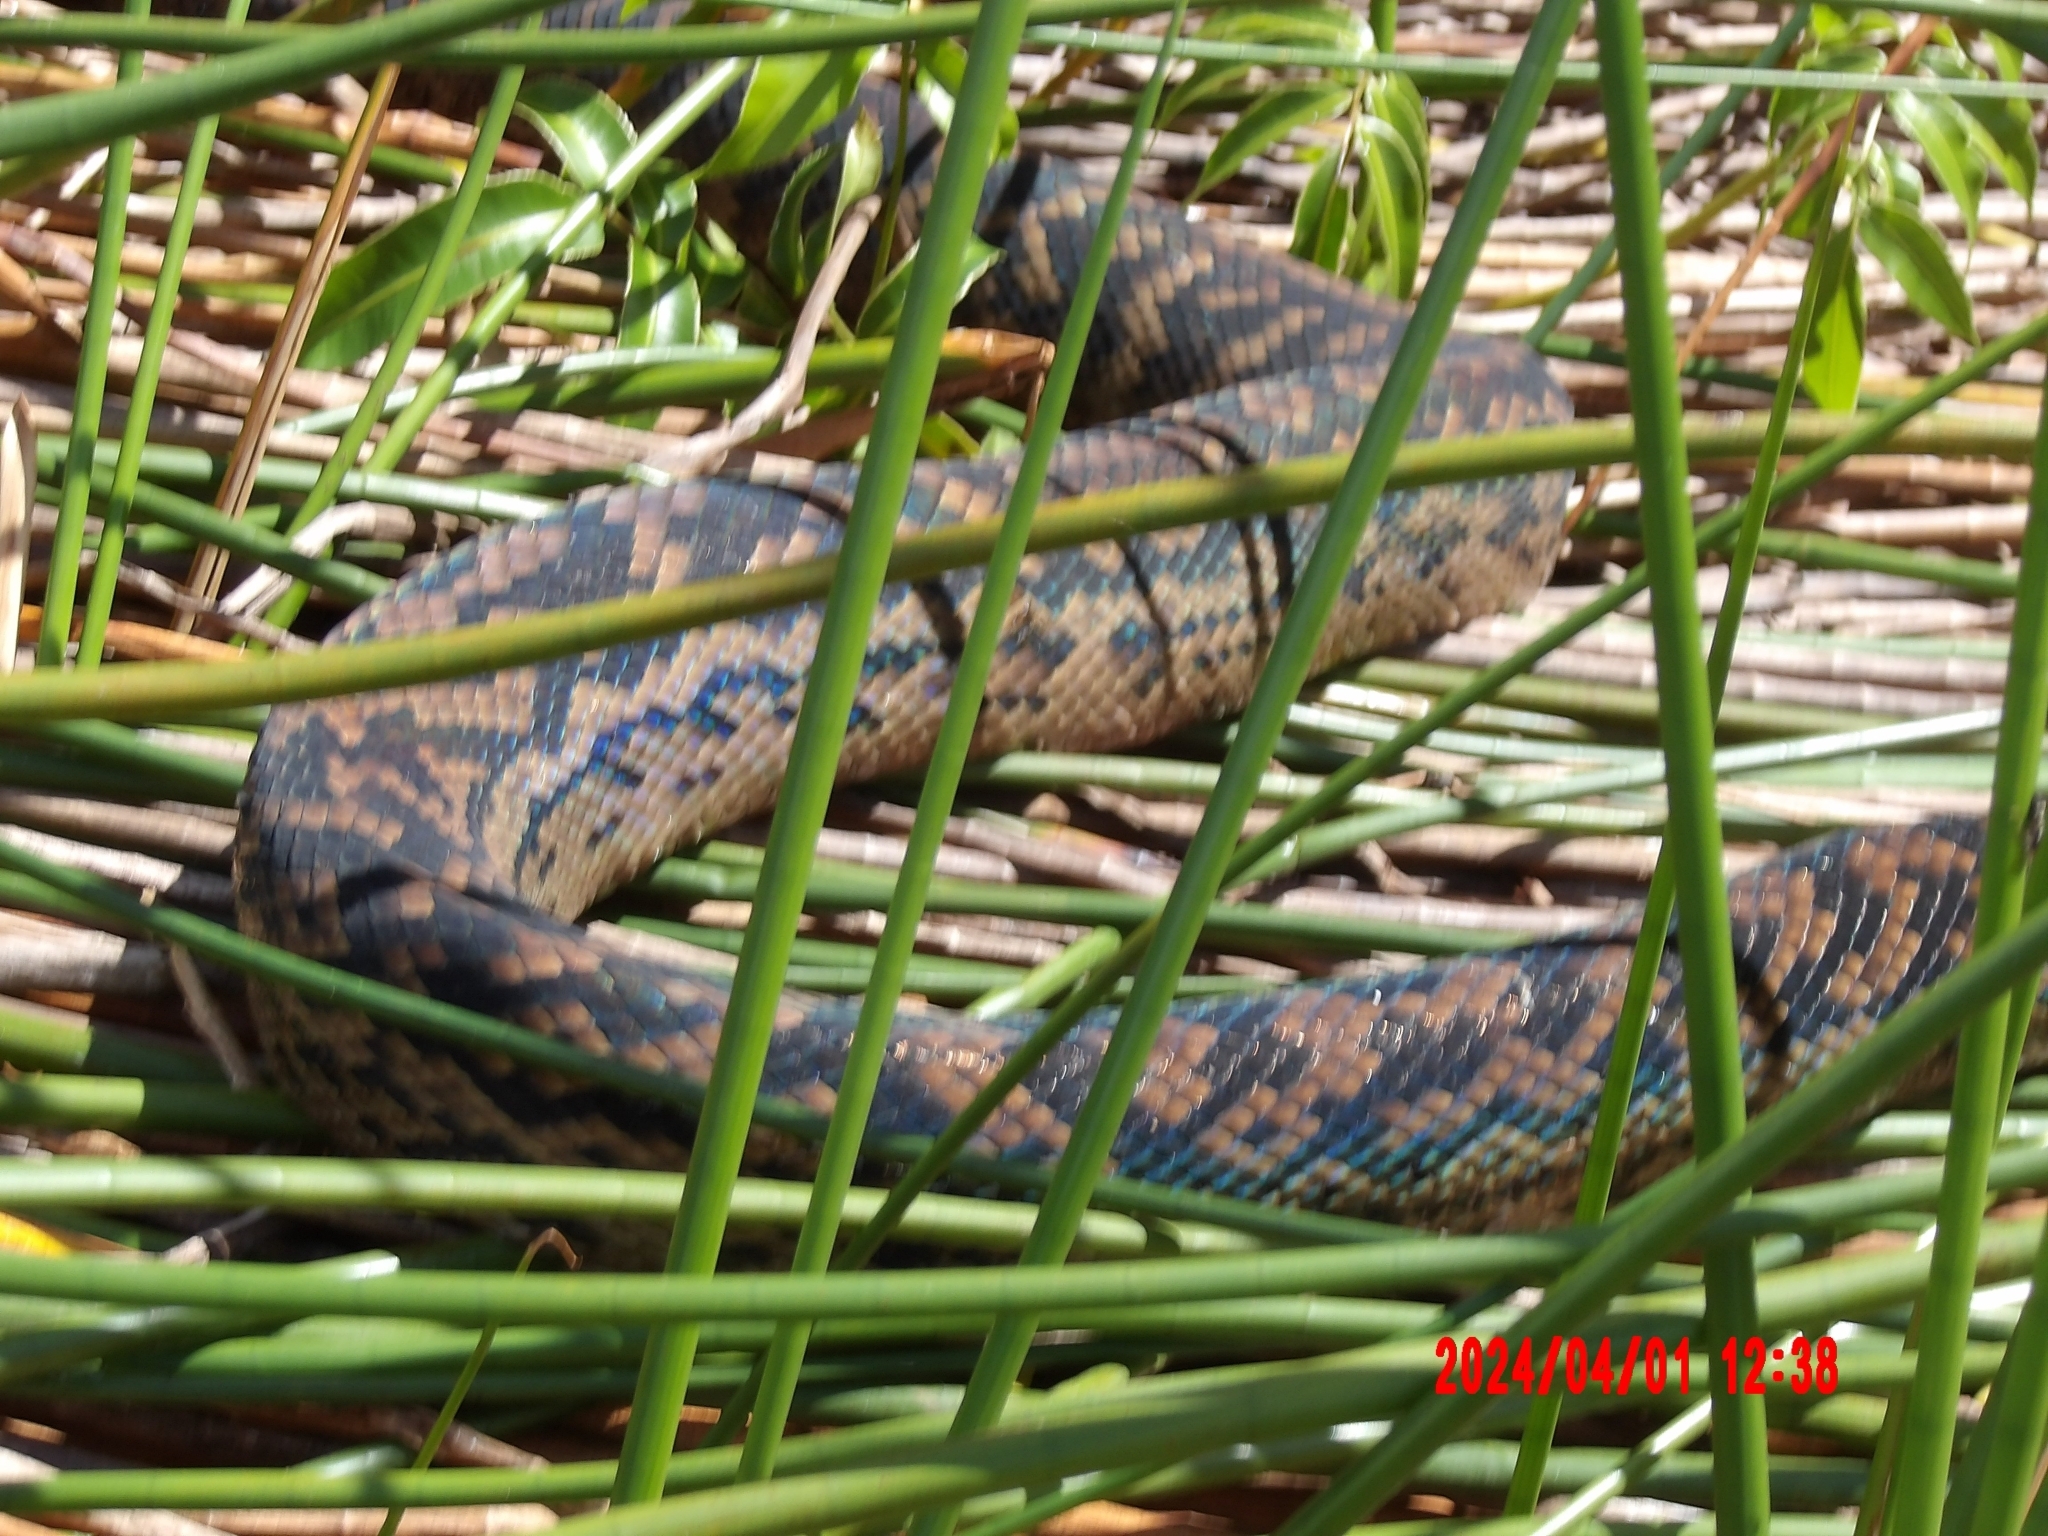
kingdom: Animalia
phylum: Chordata
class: Squamata
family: Pythonidae
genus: Simalia
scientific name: Simalia kinghorni
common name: Scrub python
